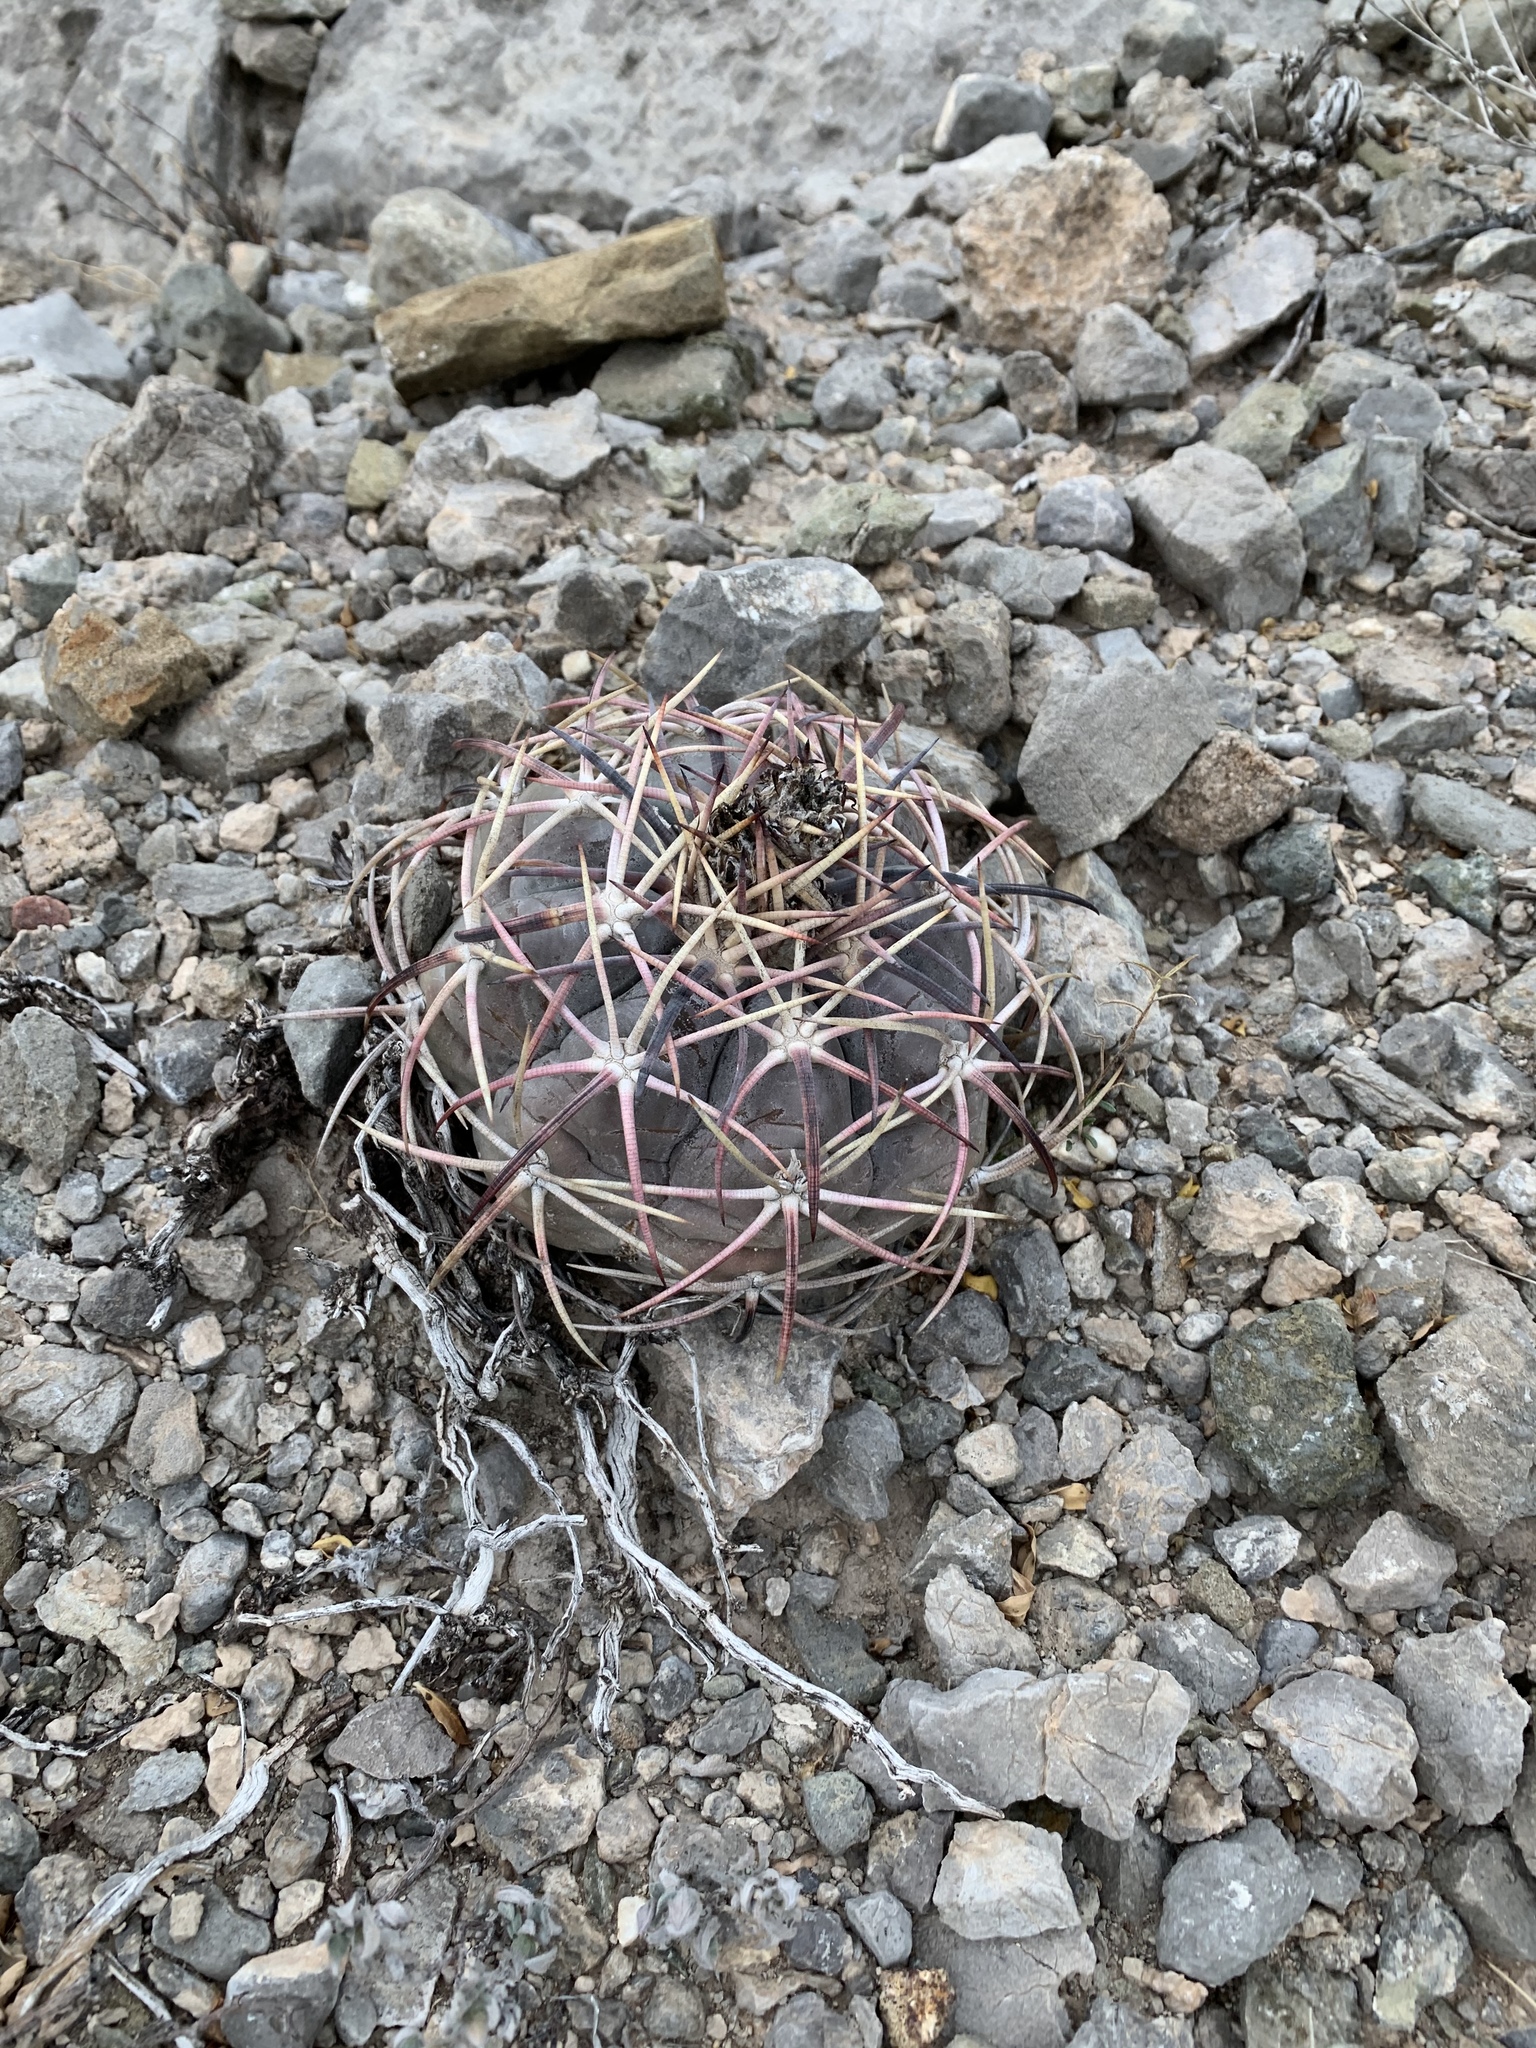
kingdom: Plantae
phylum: Tracheophyta
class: Magnoliopsida
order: Caryophyllales
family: Cactaceae
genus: Echinocactus
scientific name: Echinocactus horizonthalonius
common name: Devilshead
